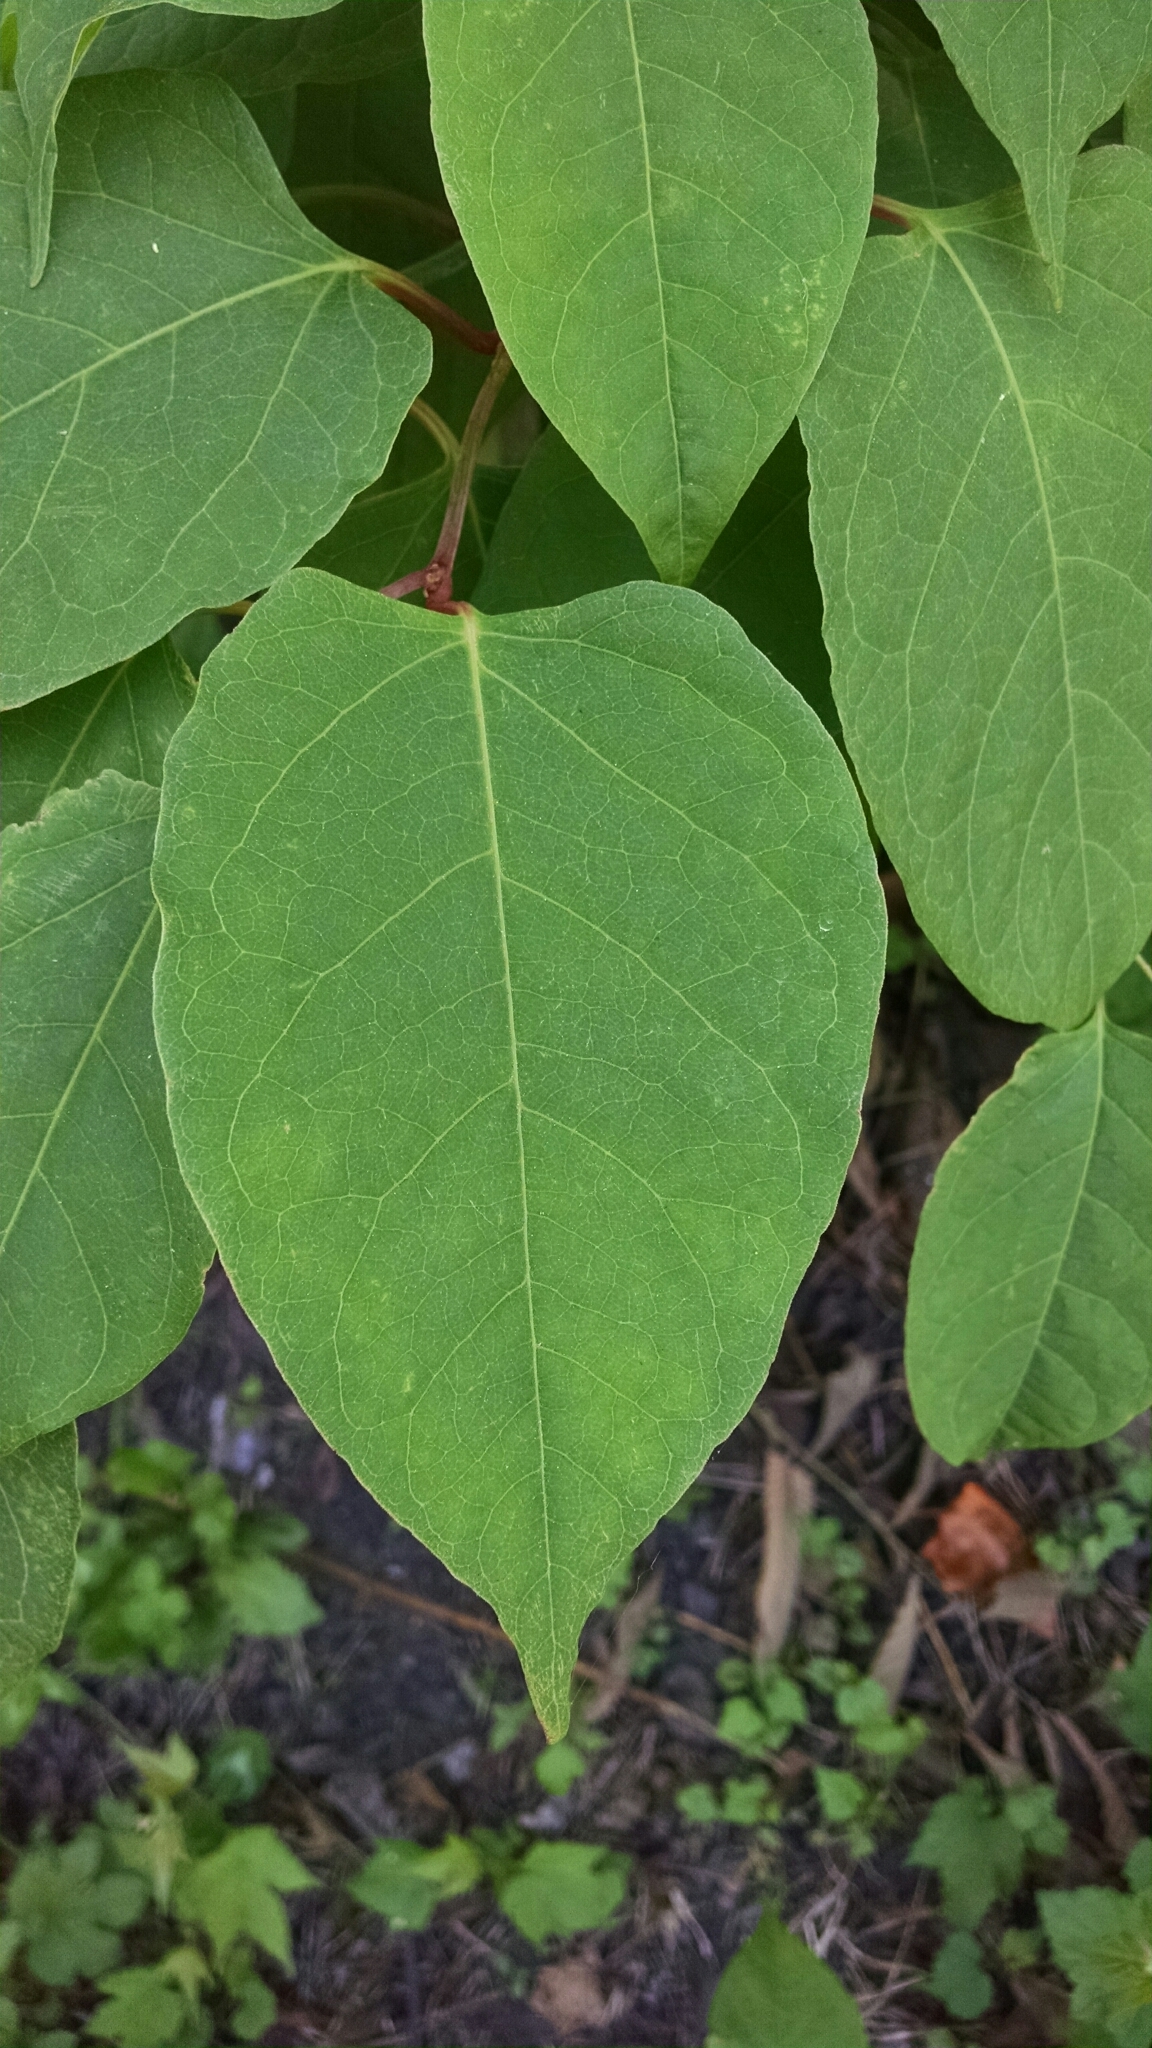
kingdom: Plantae
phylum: Tracheophyta
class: Magnoliopsida
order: Caryophyllales
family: Polygonaceae
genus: Reynoutria
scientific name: Reynoutria japonica
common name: Japanese knotweed
